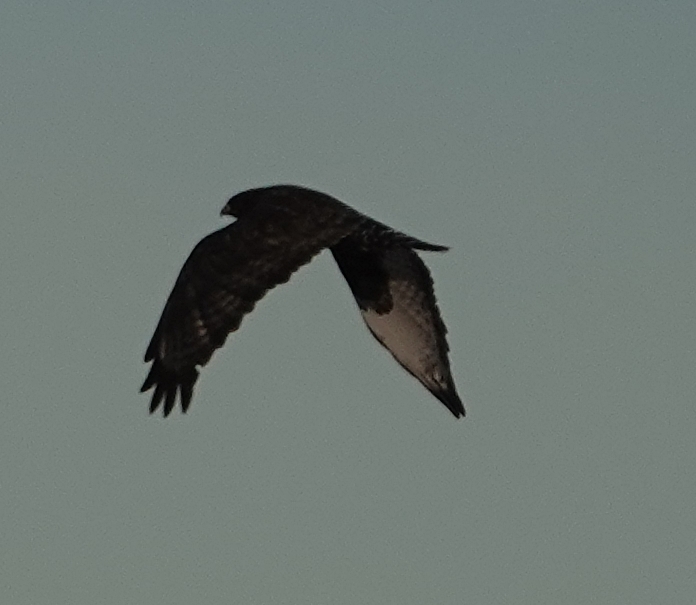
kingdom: Animalia
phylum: Chordata
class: Aves
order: Accipitriformes
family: Accipitridae
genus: Buteo
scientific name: Buteo lagopus
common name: Rough-legged buzzard
